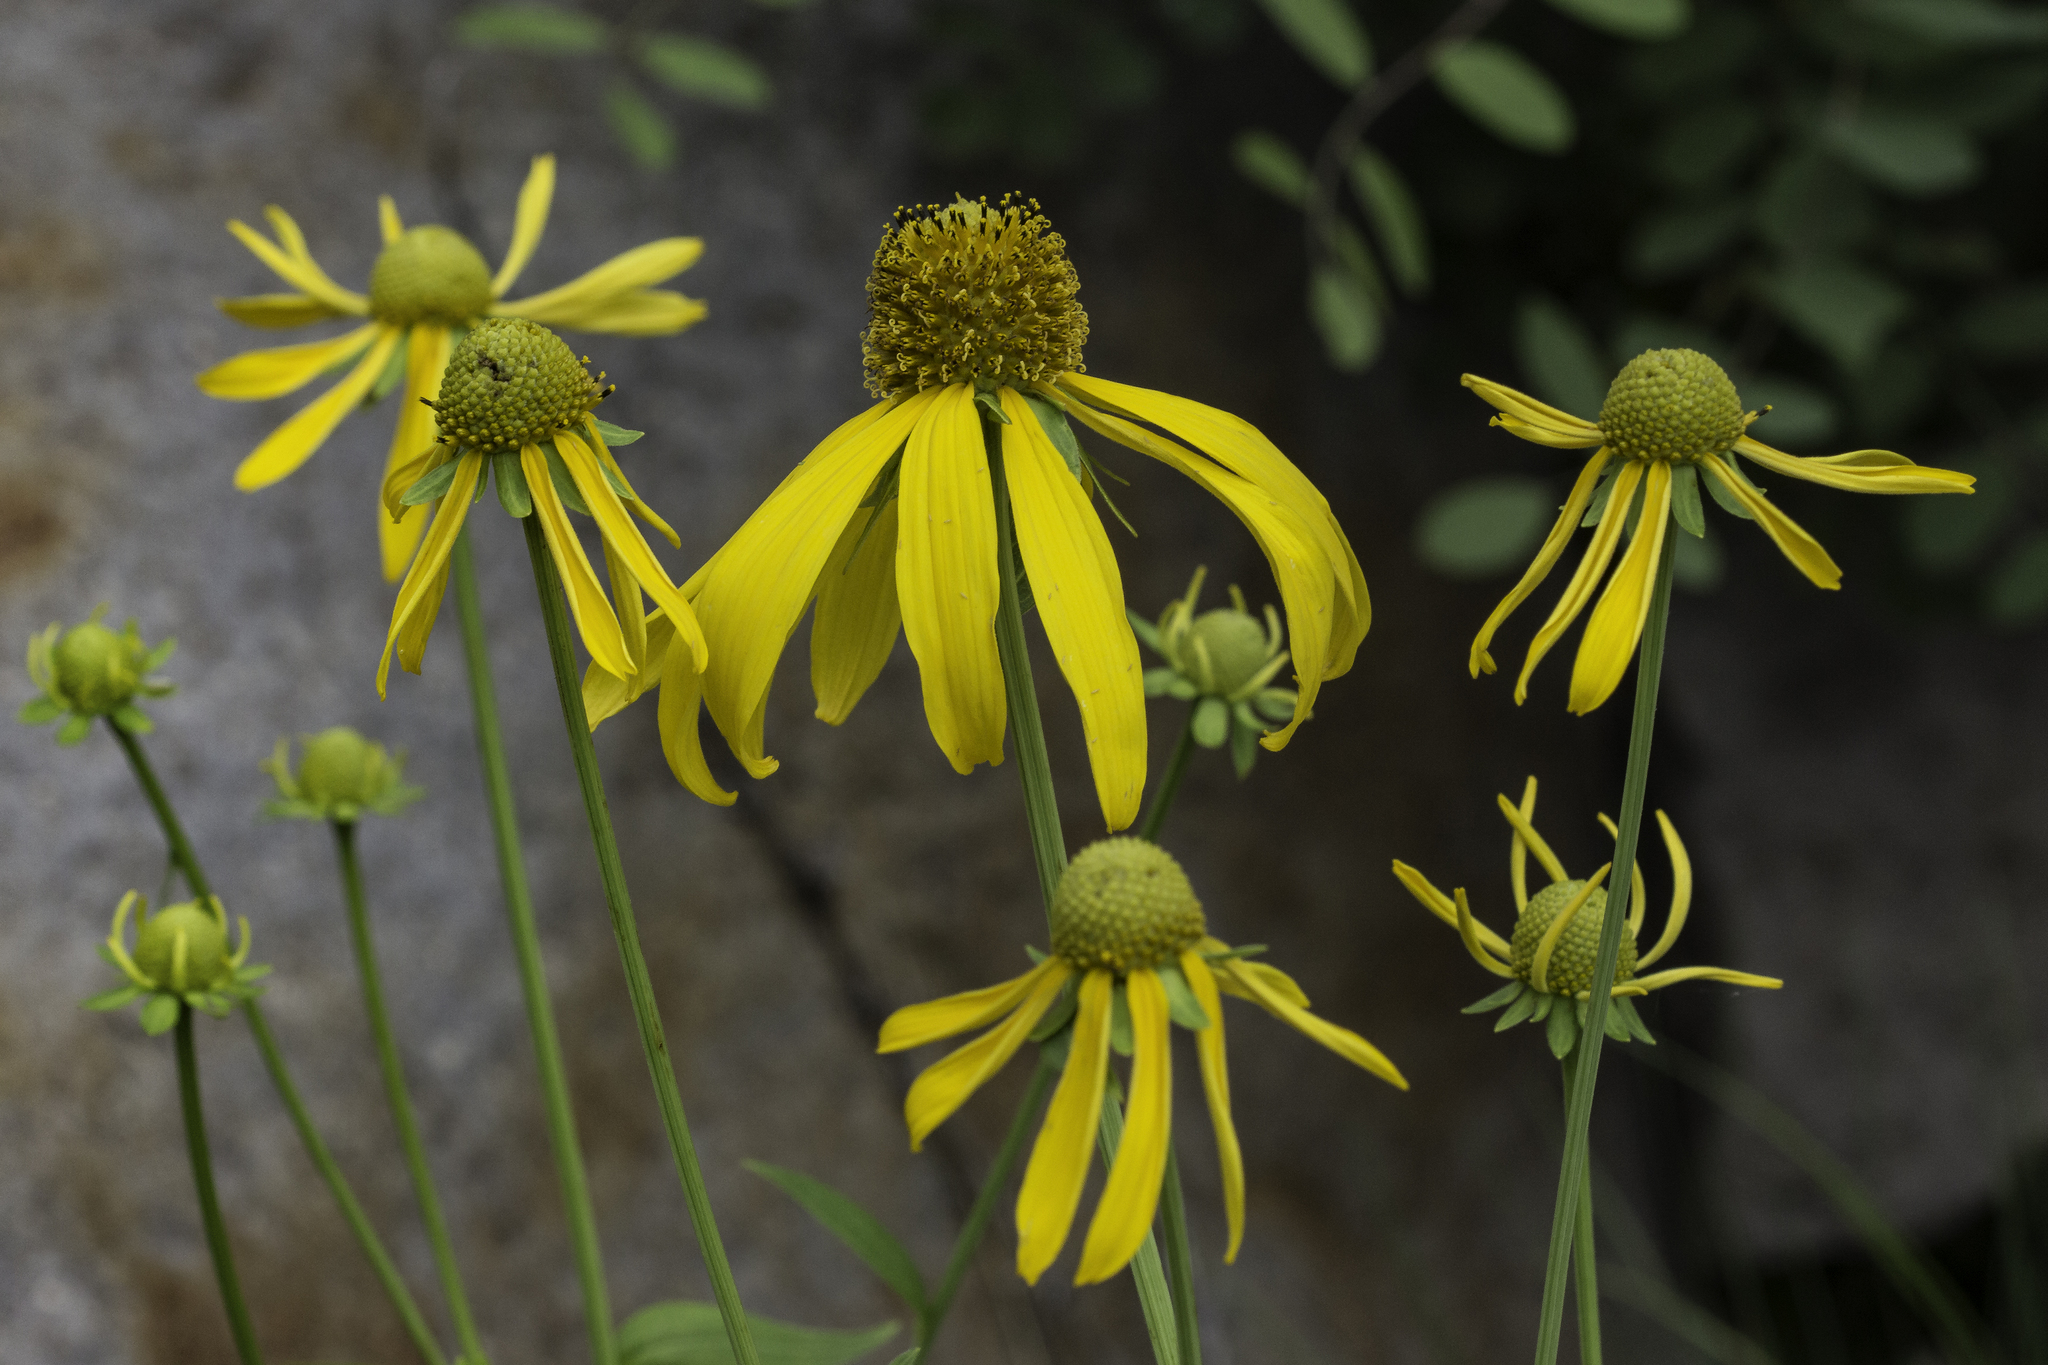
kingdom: Plantae
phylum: Tracheophyta
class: Magnoliopsida
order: Asterales
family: Asteraceae
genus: Rudbeckia
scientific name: Rudbeckia laciniata
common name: Coneflower
